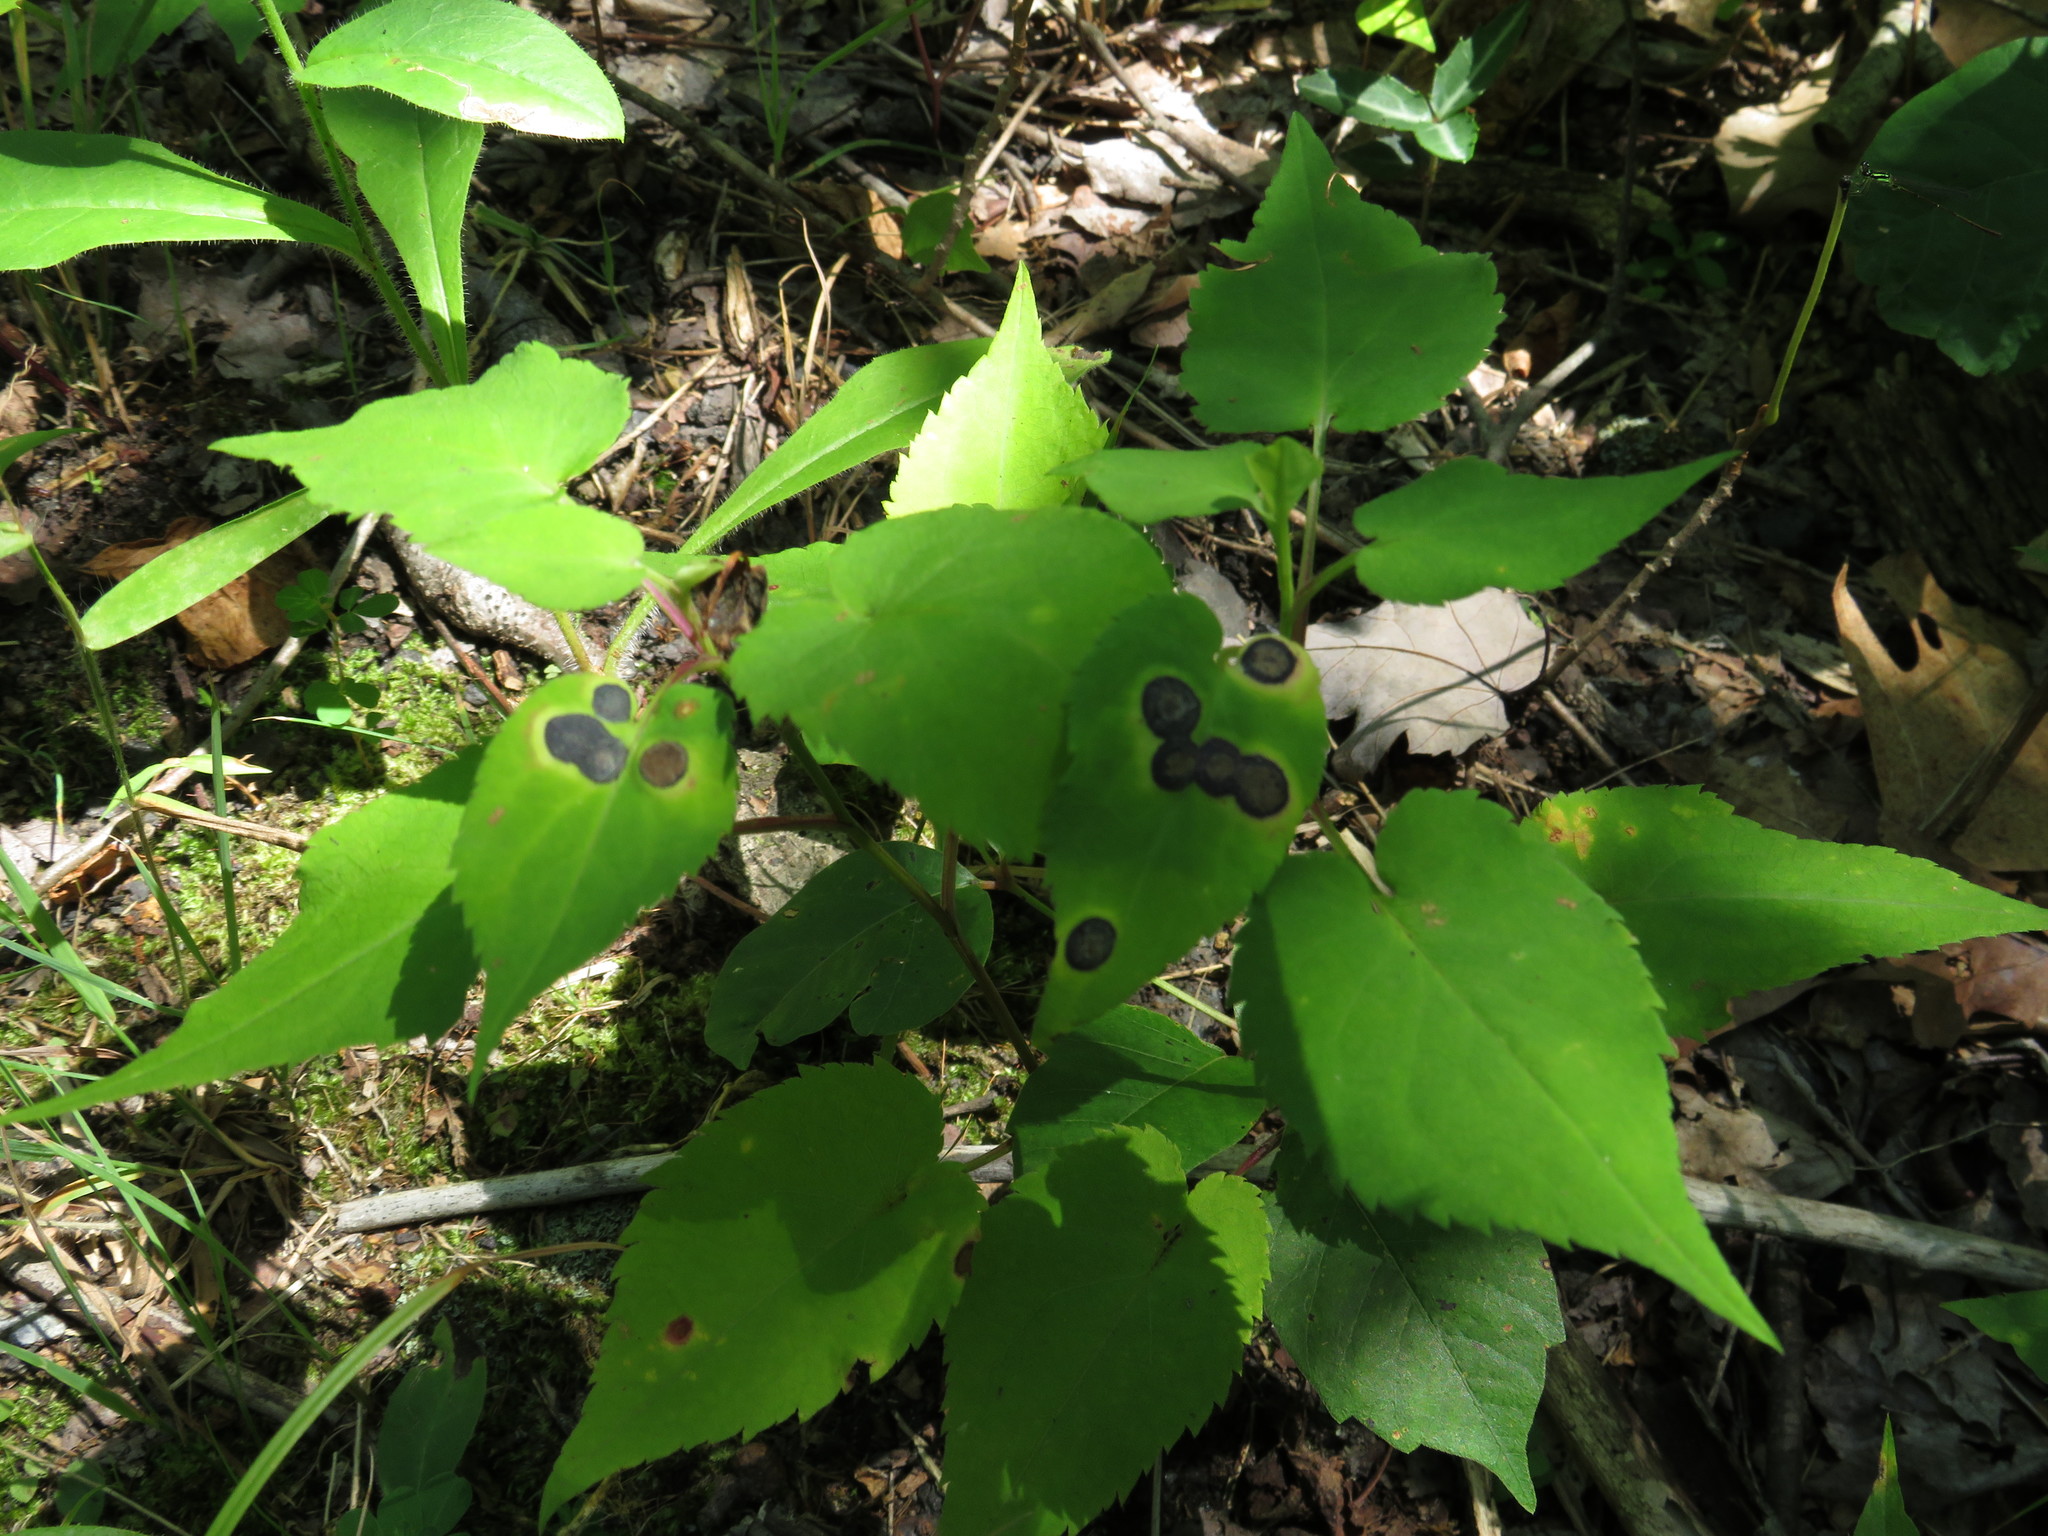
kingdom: Animalia
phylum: Arthropoda
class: Insecta
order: Diptera
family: Cecidomyiidae
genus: Asteromyia
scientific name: Asteromyia carbonifera
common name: Carbonifera goldenrod gall midge
